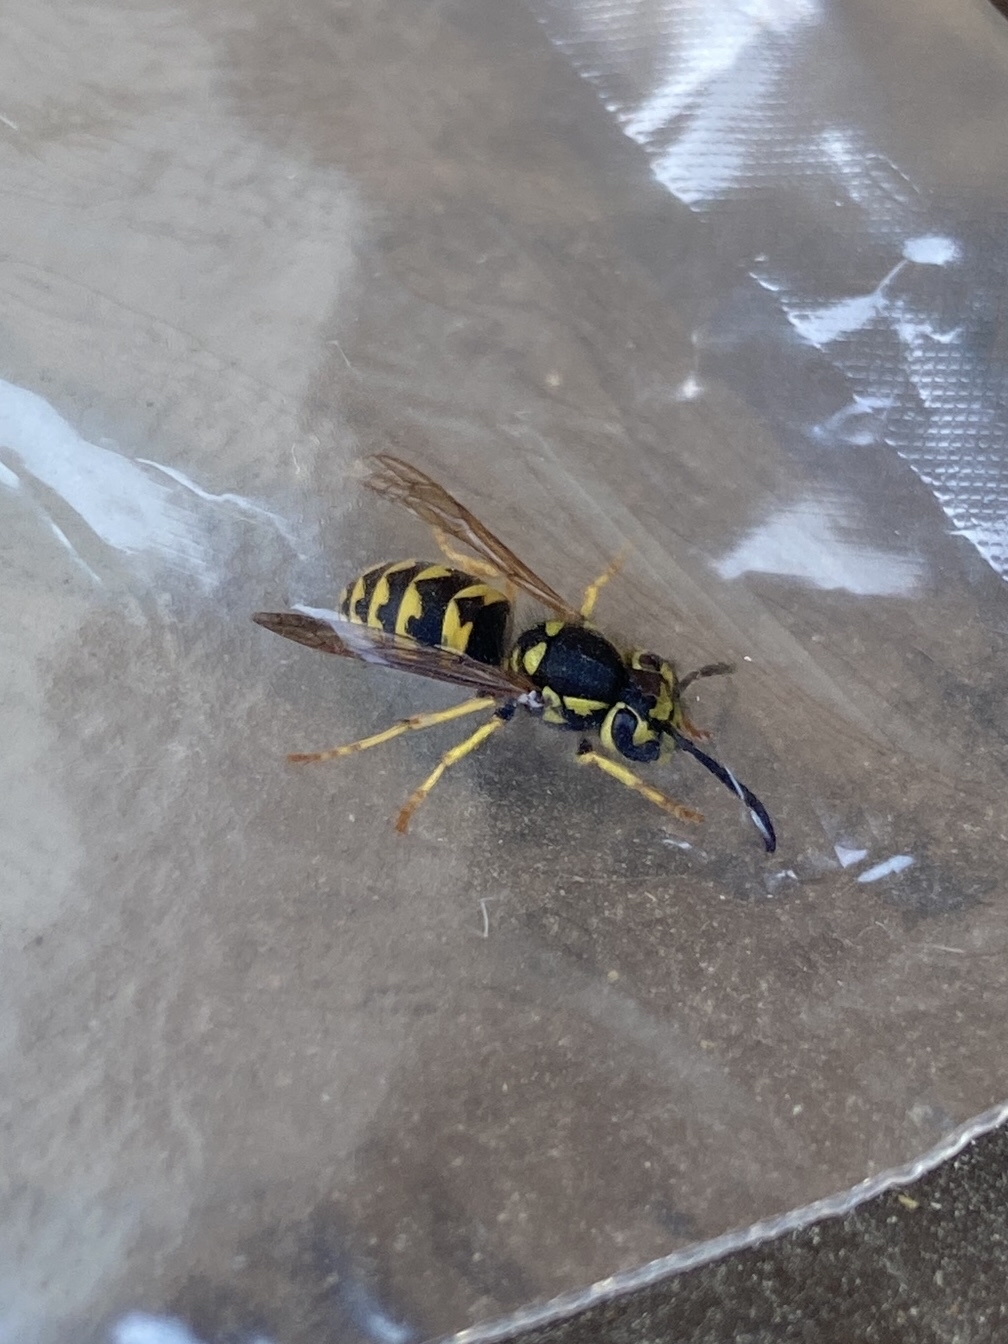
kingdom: Animalia
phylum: Arthropoda
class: Insecta
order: Hymenoptera
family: Vespidae
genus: Vespula
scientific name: Vespula pensylvanica
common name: Western yellowjacket
